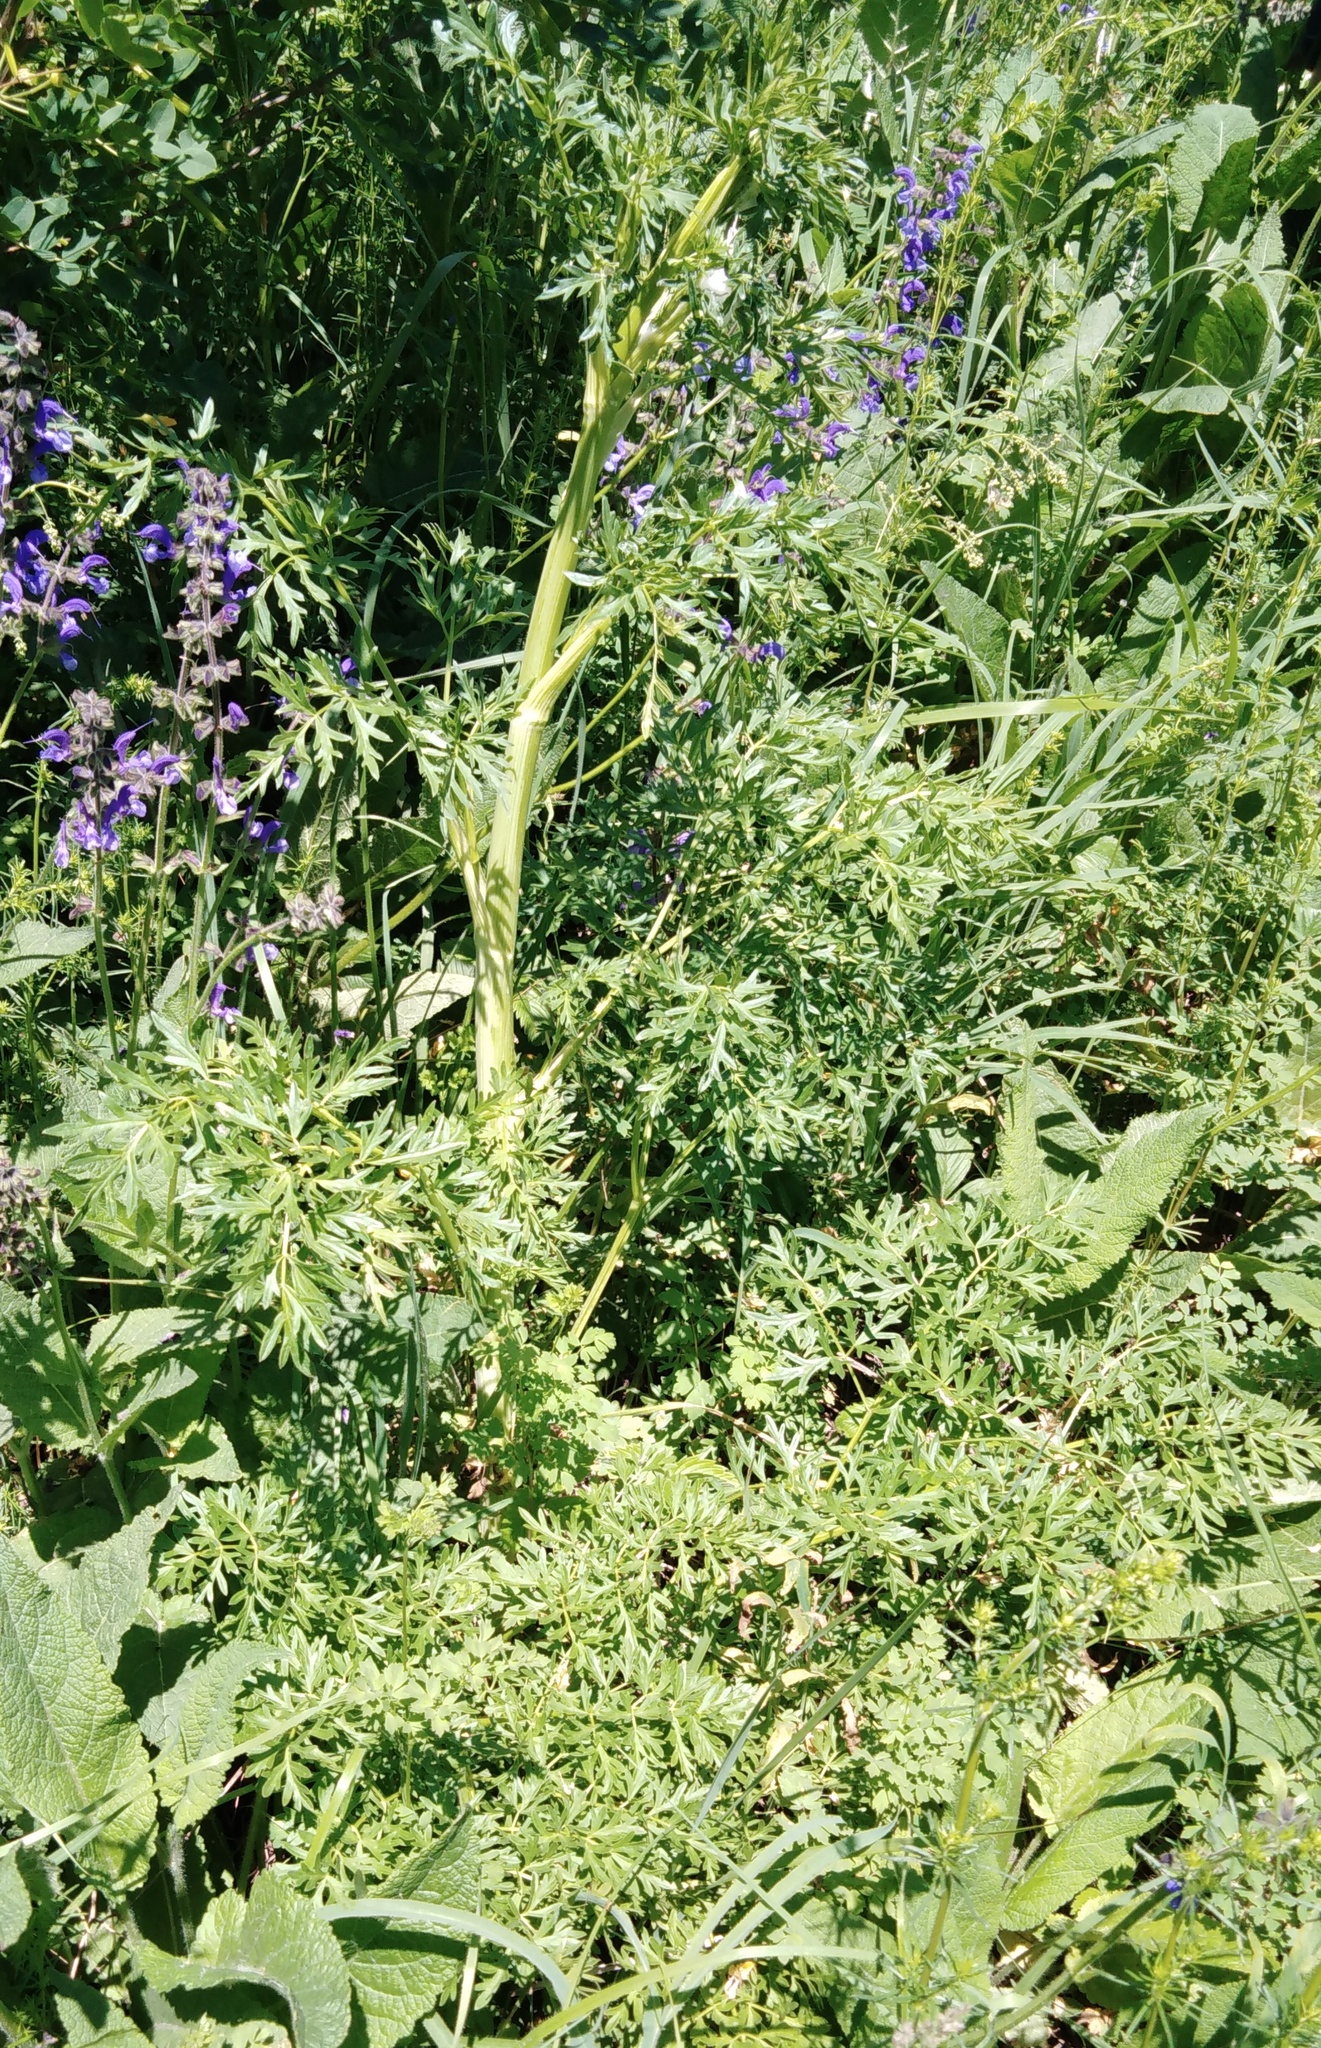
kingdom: Plantae
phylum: Tracheophyta
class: Magnoliopsida
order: Apiales
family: Apiaceae
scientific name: Apiaceae
